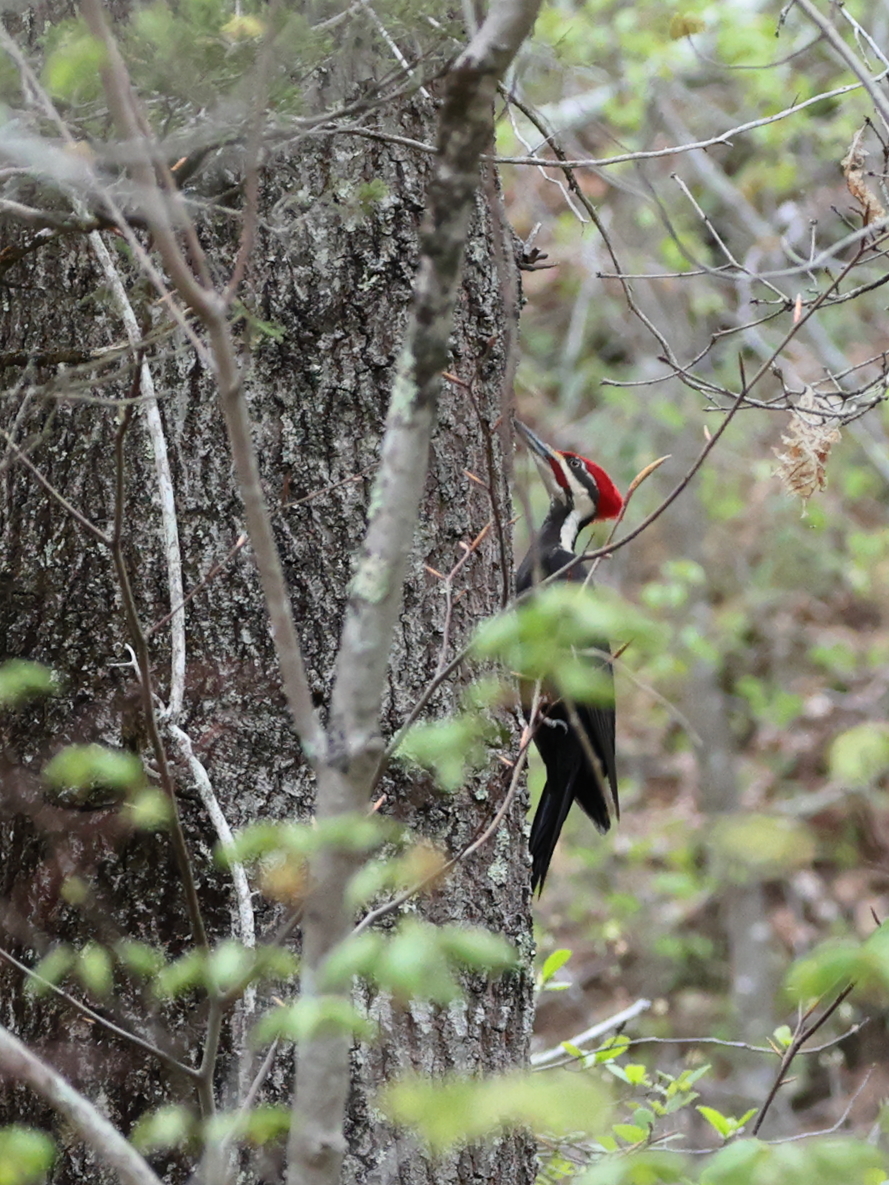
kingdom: Animalia
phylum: Chordata
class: Aves
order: Piciformes
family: Picidae
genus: Dryocopus
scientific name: Dryocopus pileatus
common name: Pileated woodpecker
